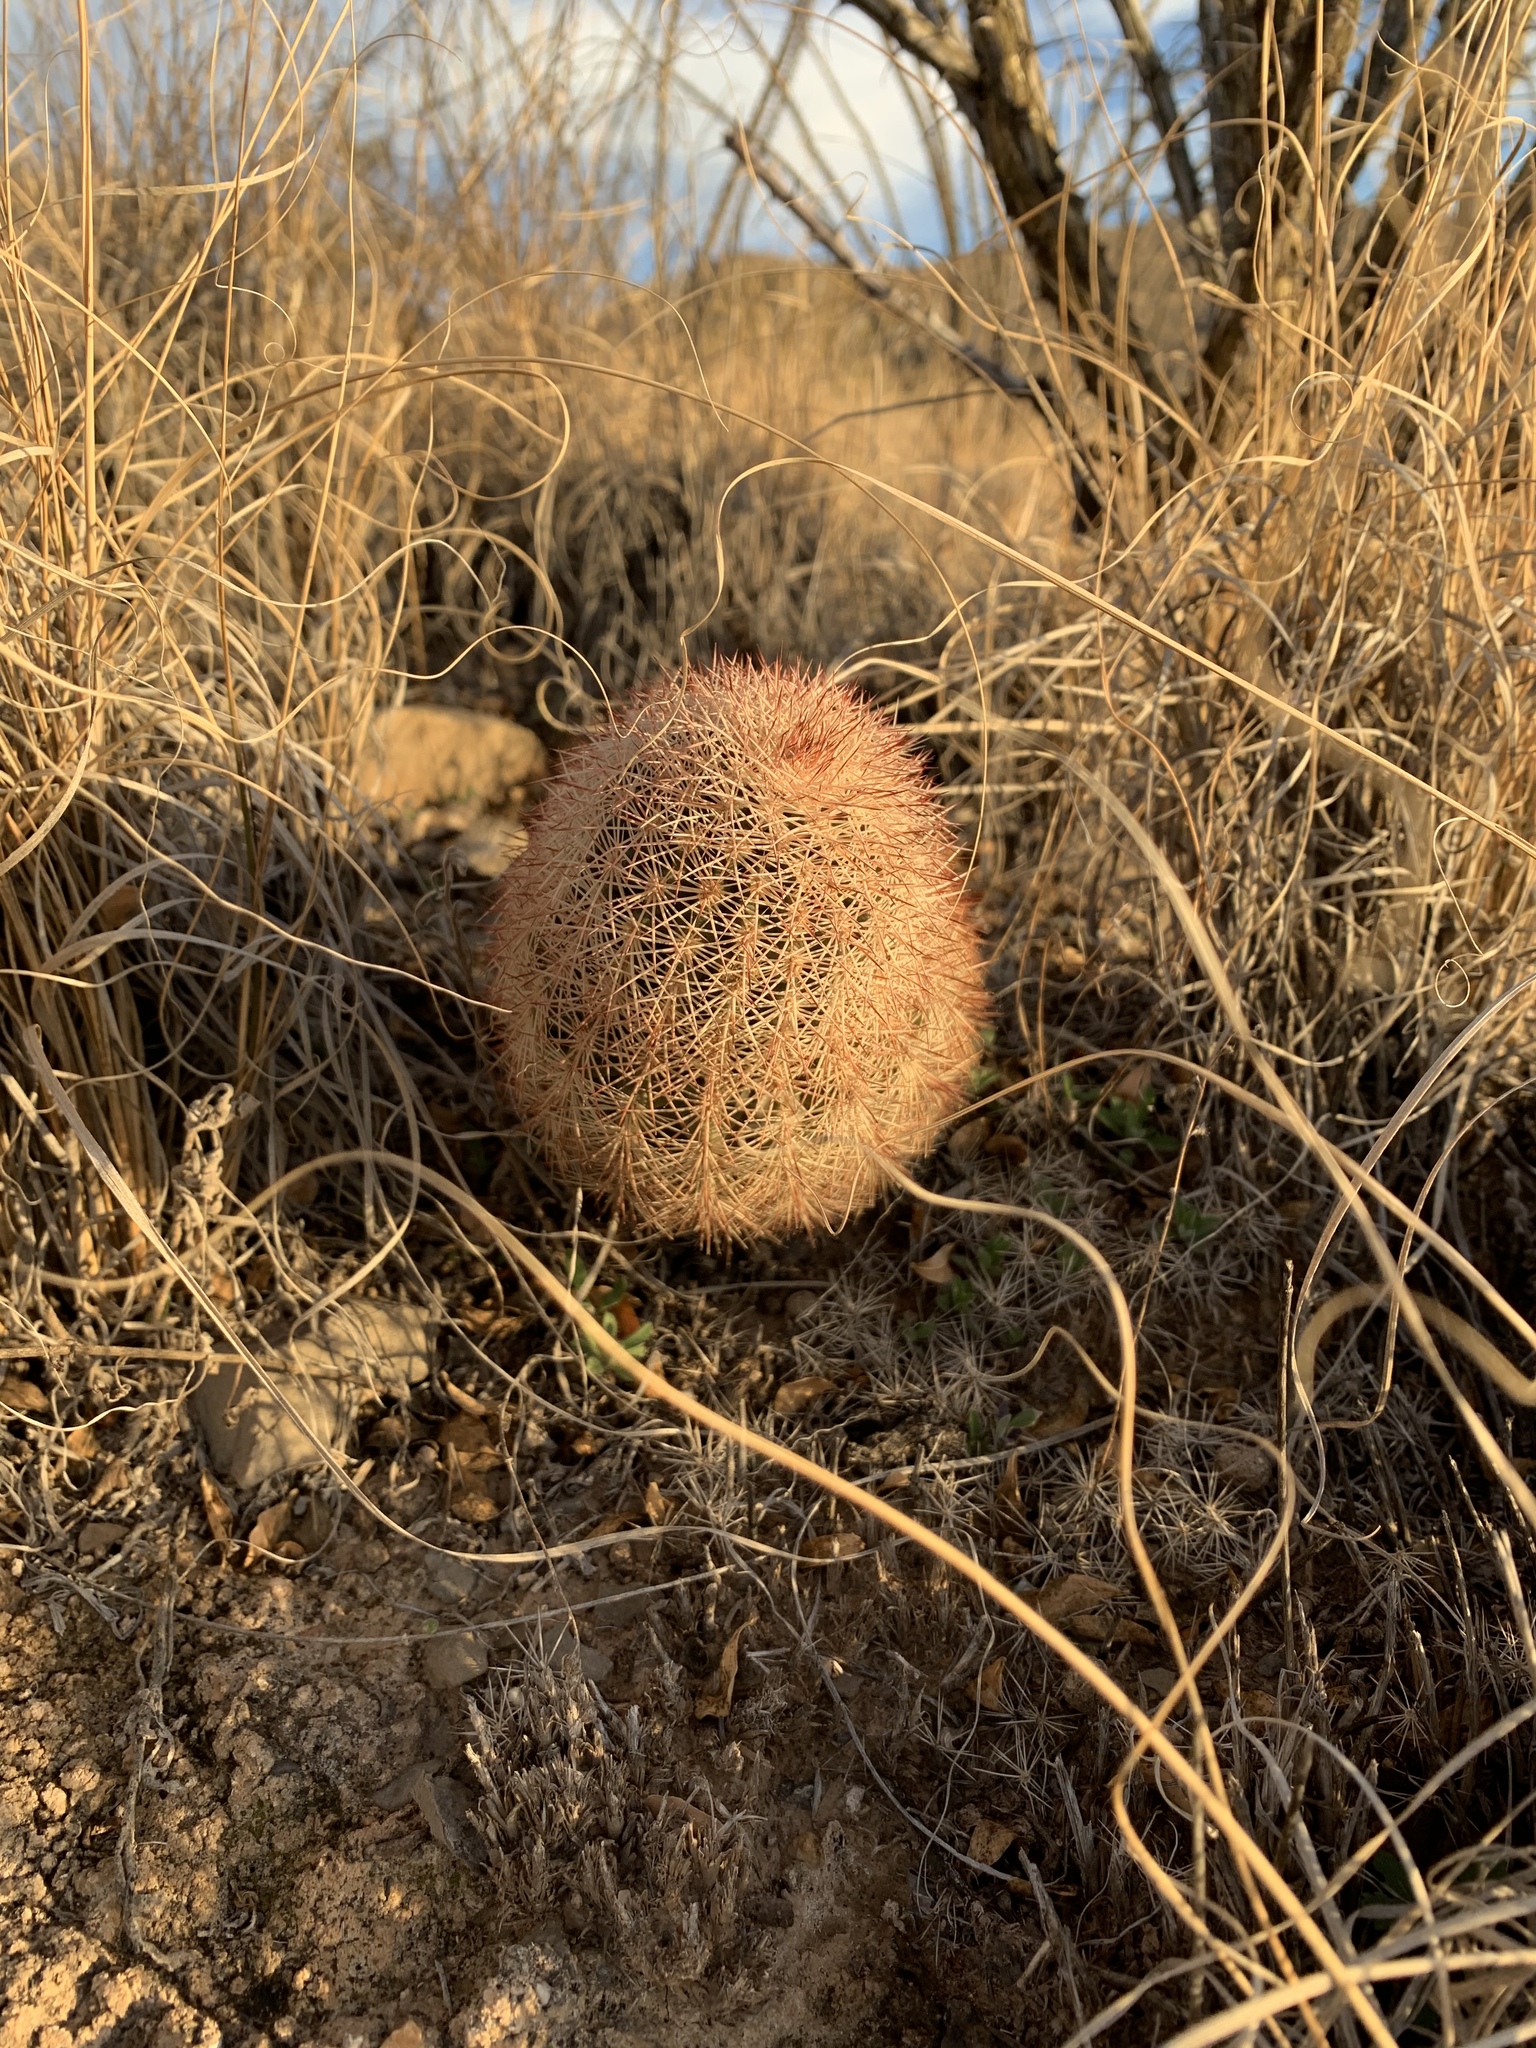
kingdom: Plantae
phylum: Tracheophyta
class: Magnoliopsida
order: Caryophyllales
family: Cactaceae
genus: Echinocereus
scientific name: Echinocereus dasyacanthus
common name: Spiny hedgehog cactus
